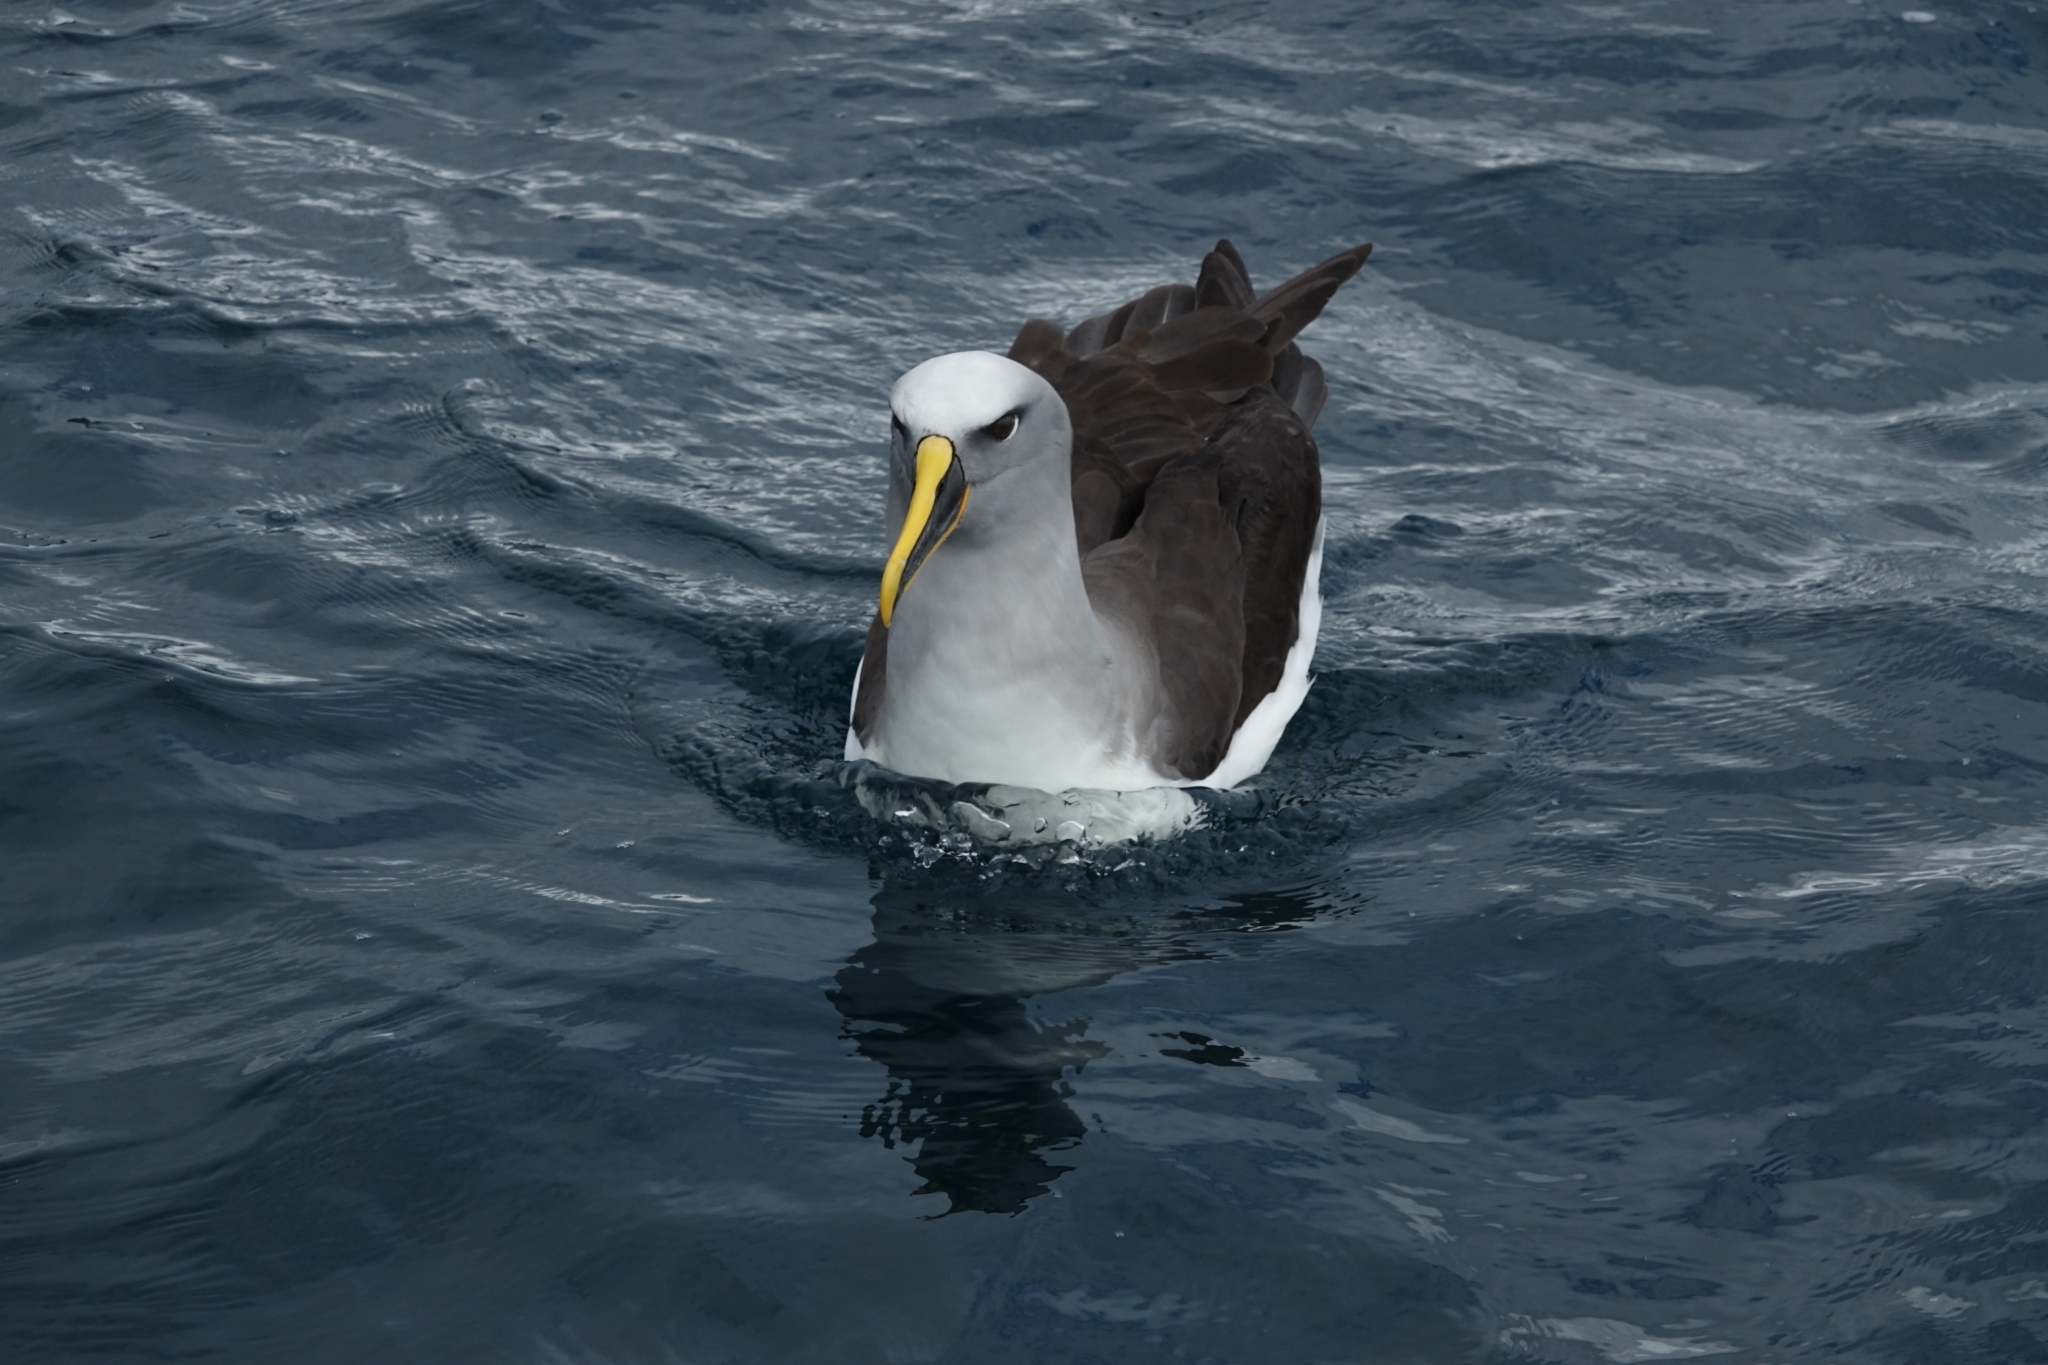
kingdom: Animalia
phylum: Chordata
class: Aves
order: Procellariiformes
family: Diomedeidae
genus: Thalassarche
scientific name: Thalassarche bulleri
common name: Buller's albatross
